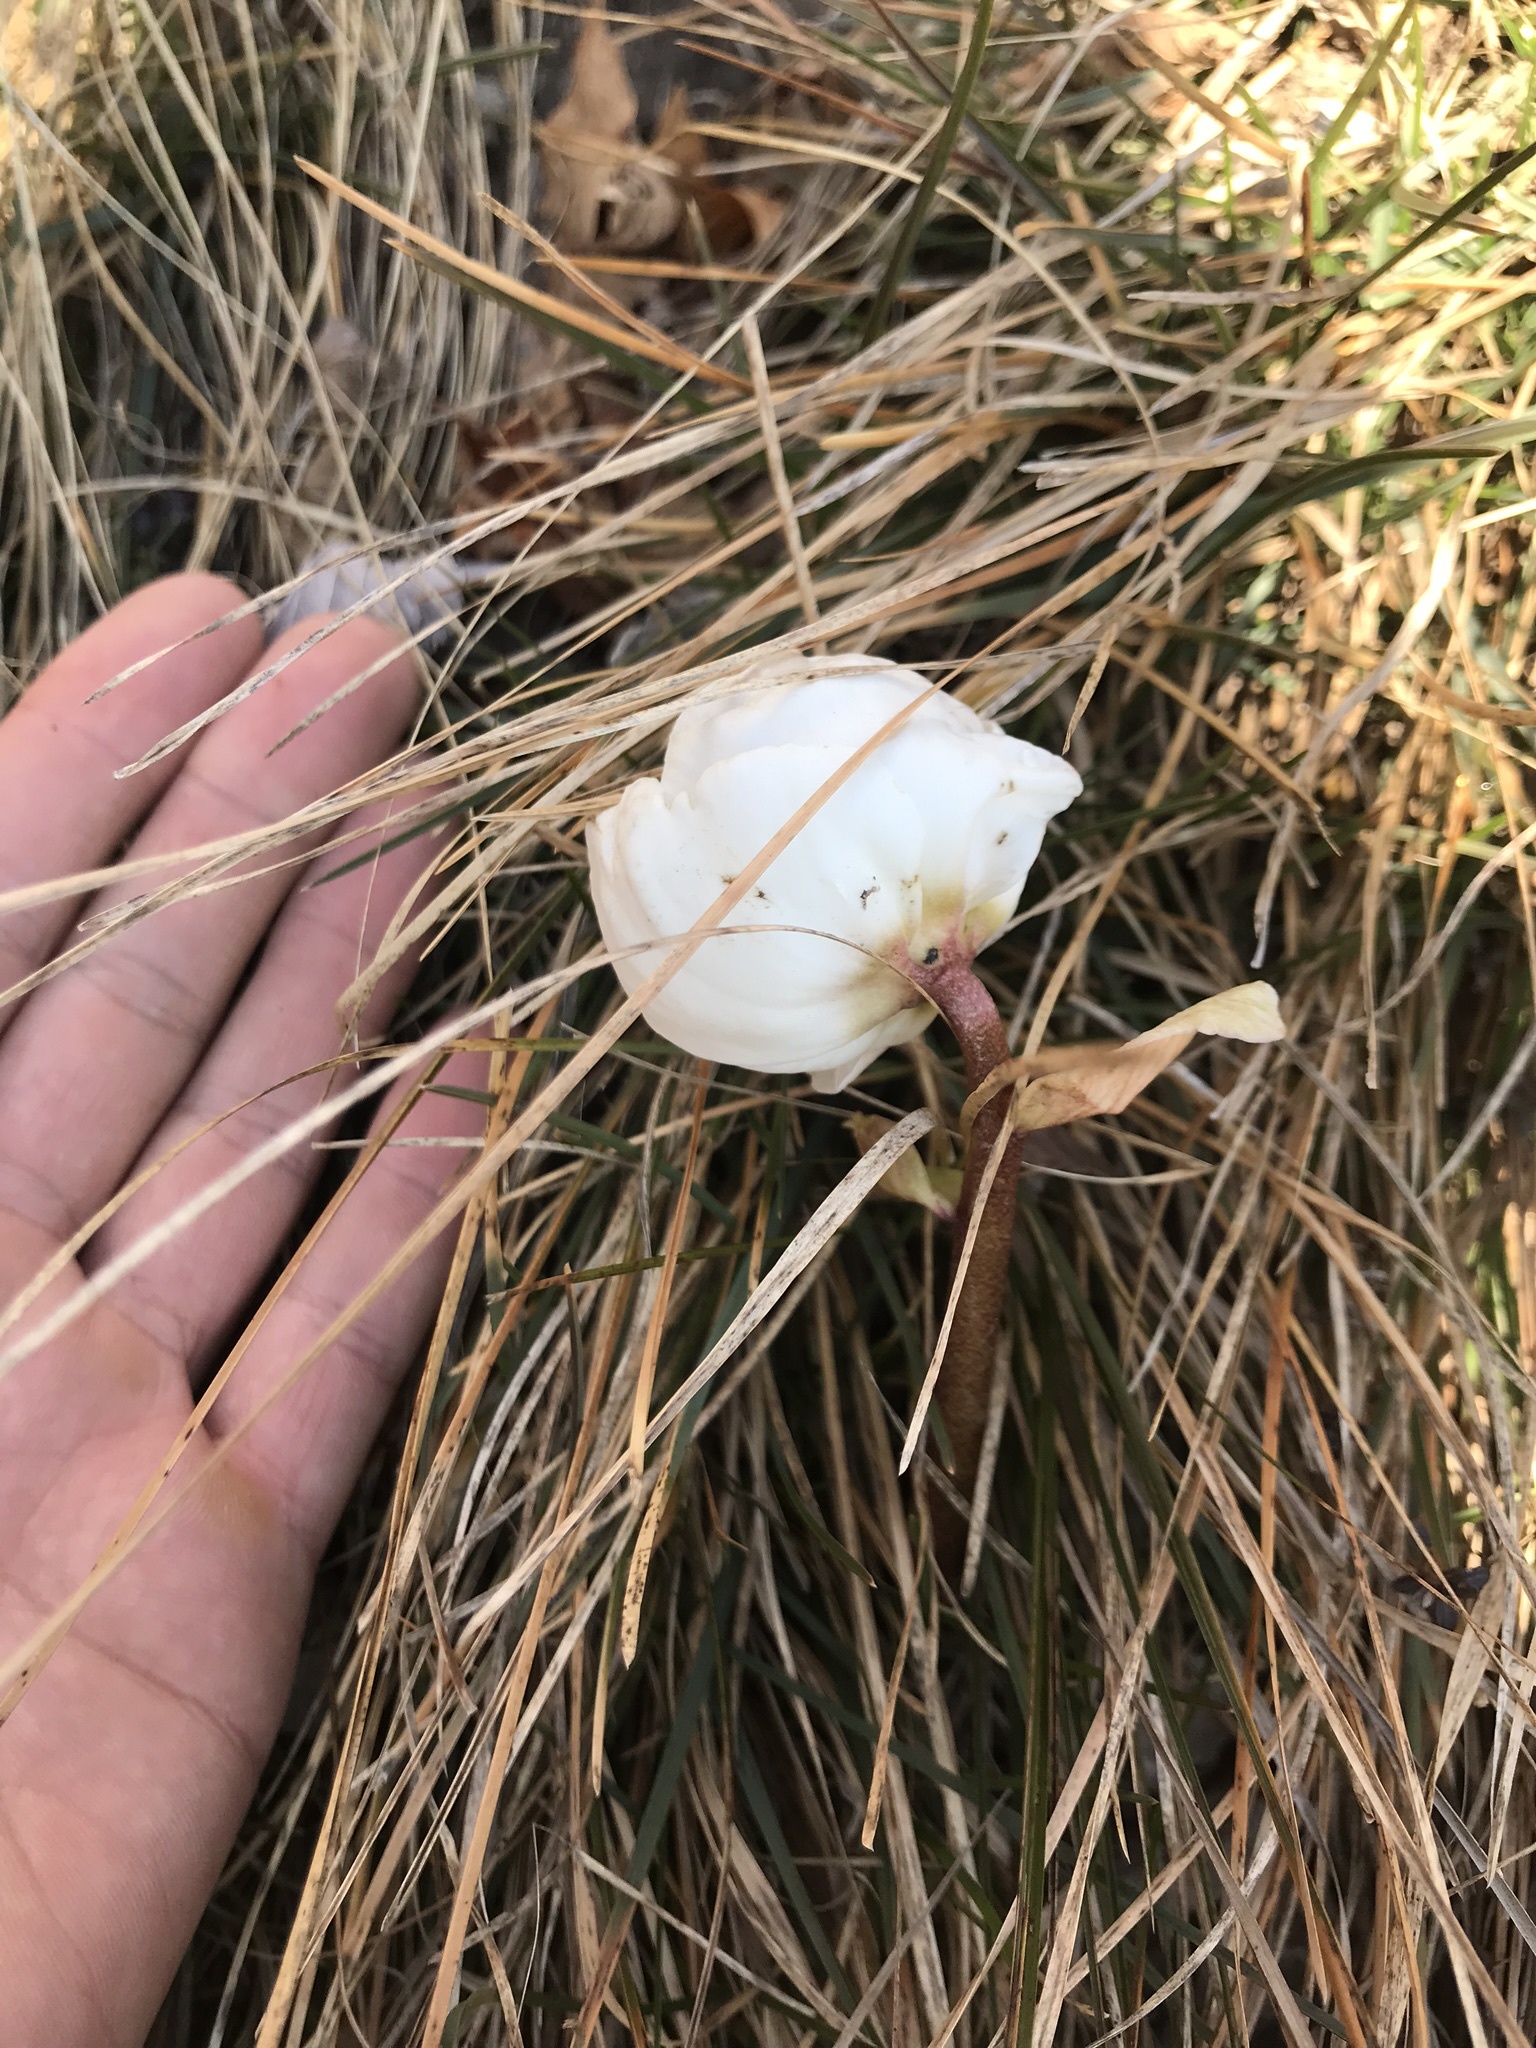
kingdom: Plantae
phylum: Tracheophyta
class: Magnoliopsida
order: Ranunculales
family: Ranunculaceae
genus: Helleborus
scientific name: Helleborus niger
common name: Black hellebore
